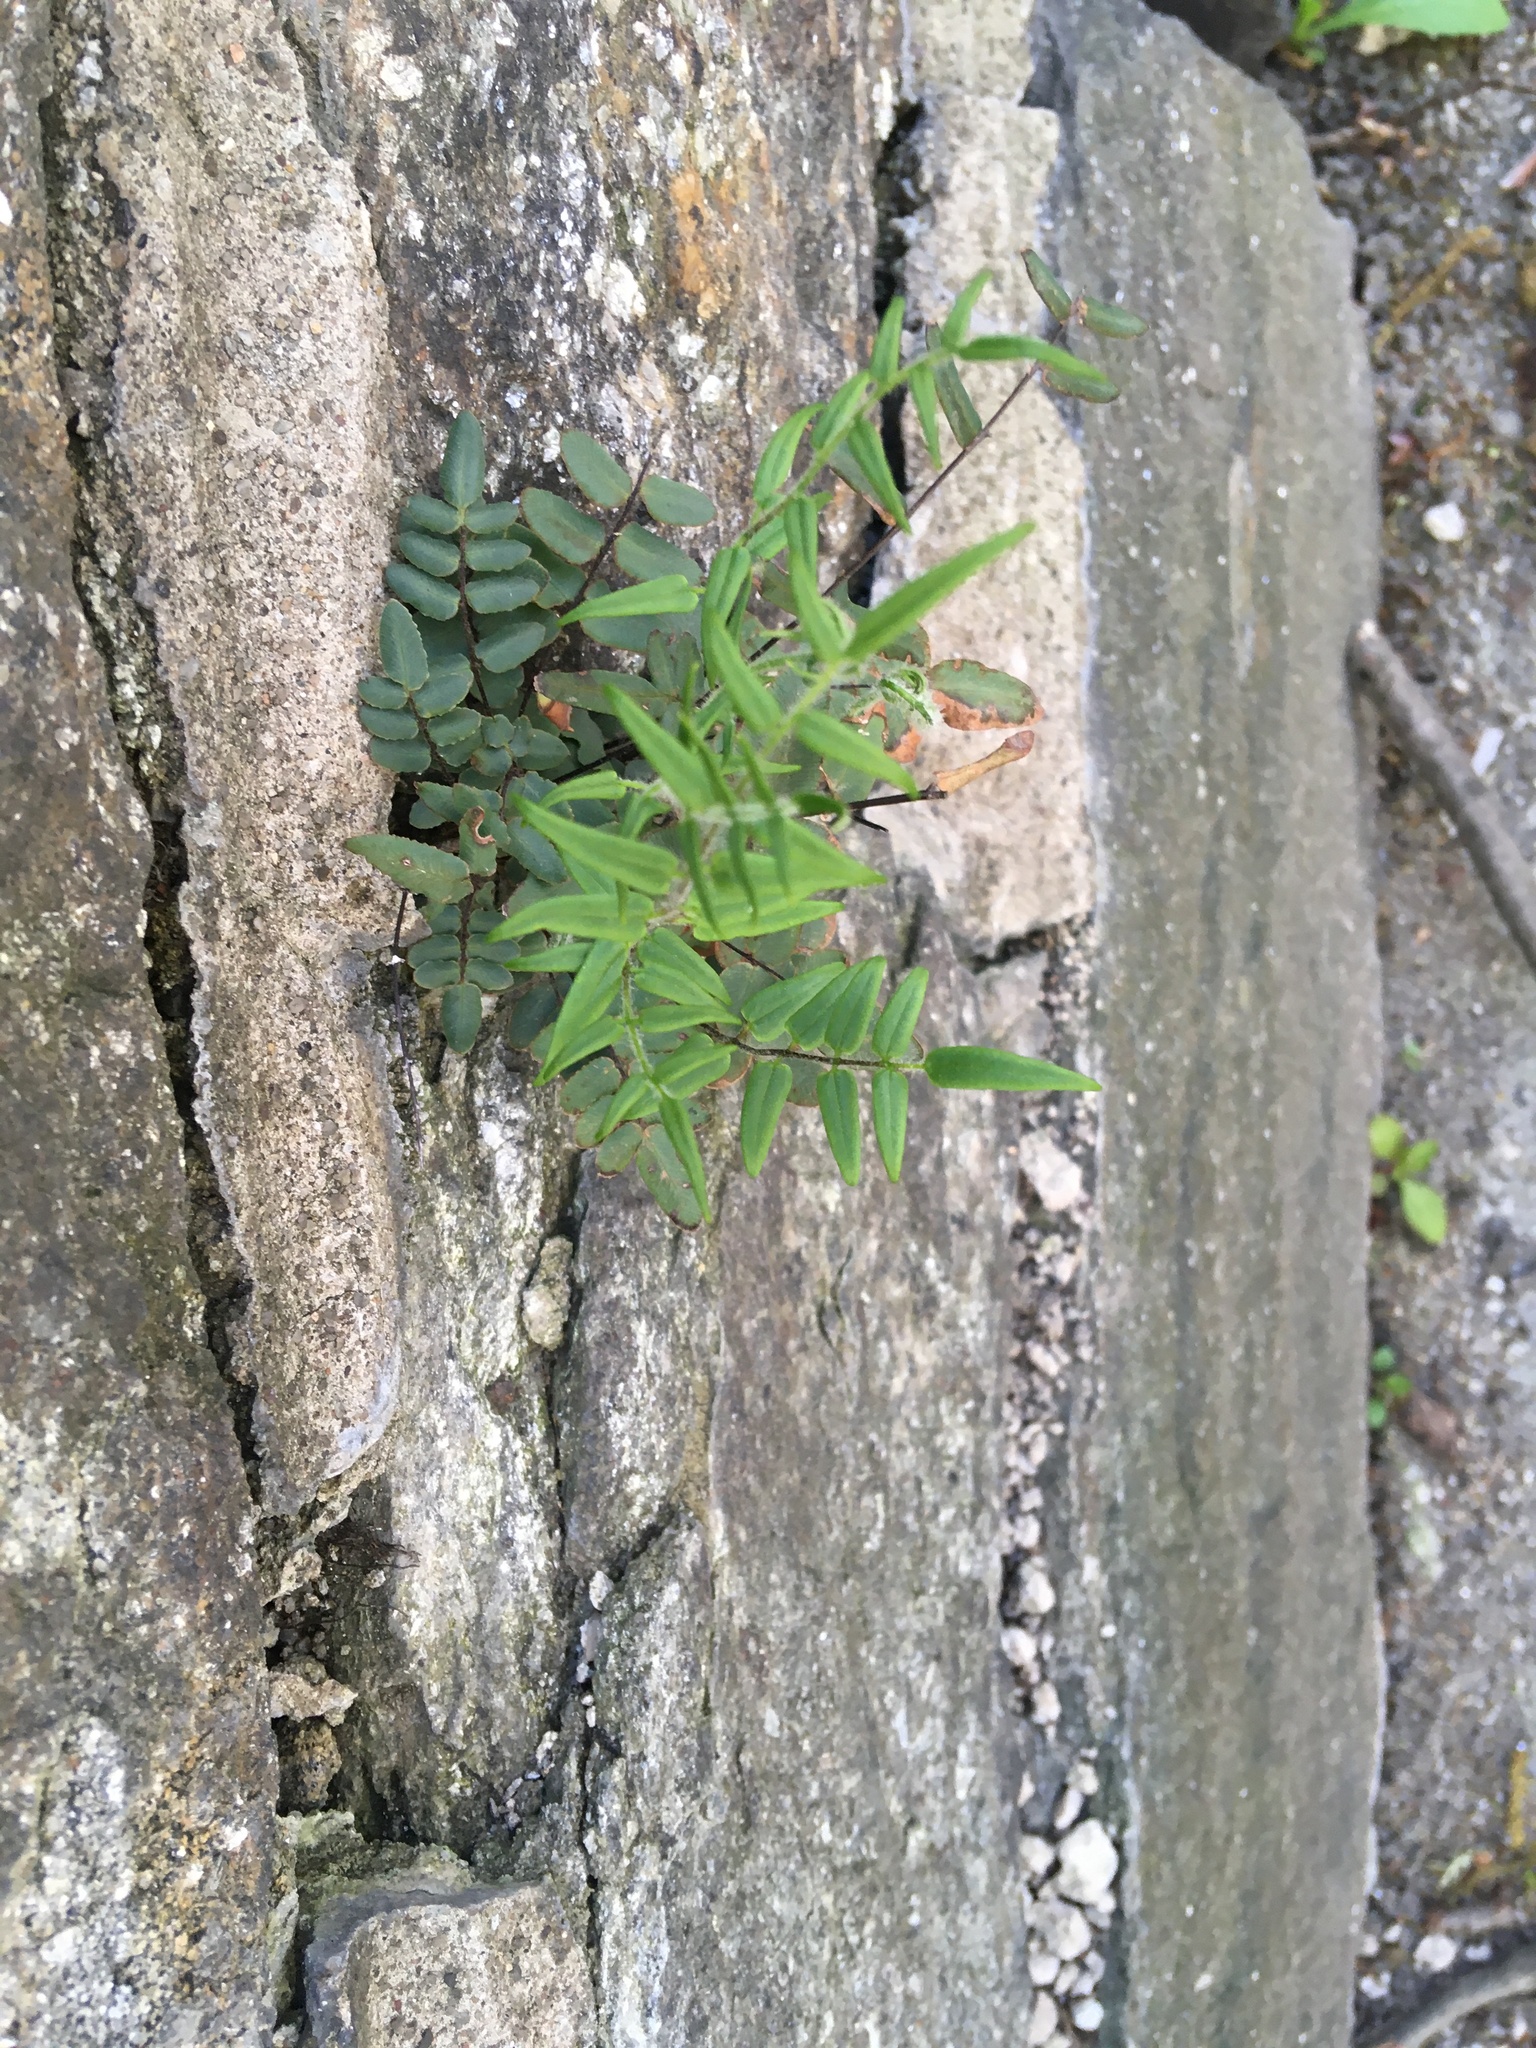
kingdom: Plantae
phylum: Tracheophyta
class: Polypodiopsida
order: Polypodiales
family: Pteridaceae
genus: Pellaea
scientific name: Pellaea atropurpurea
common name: Hairy cliffbrake
